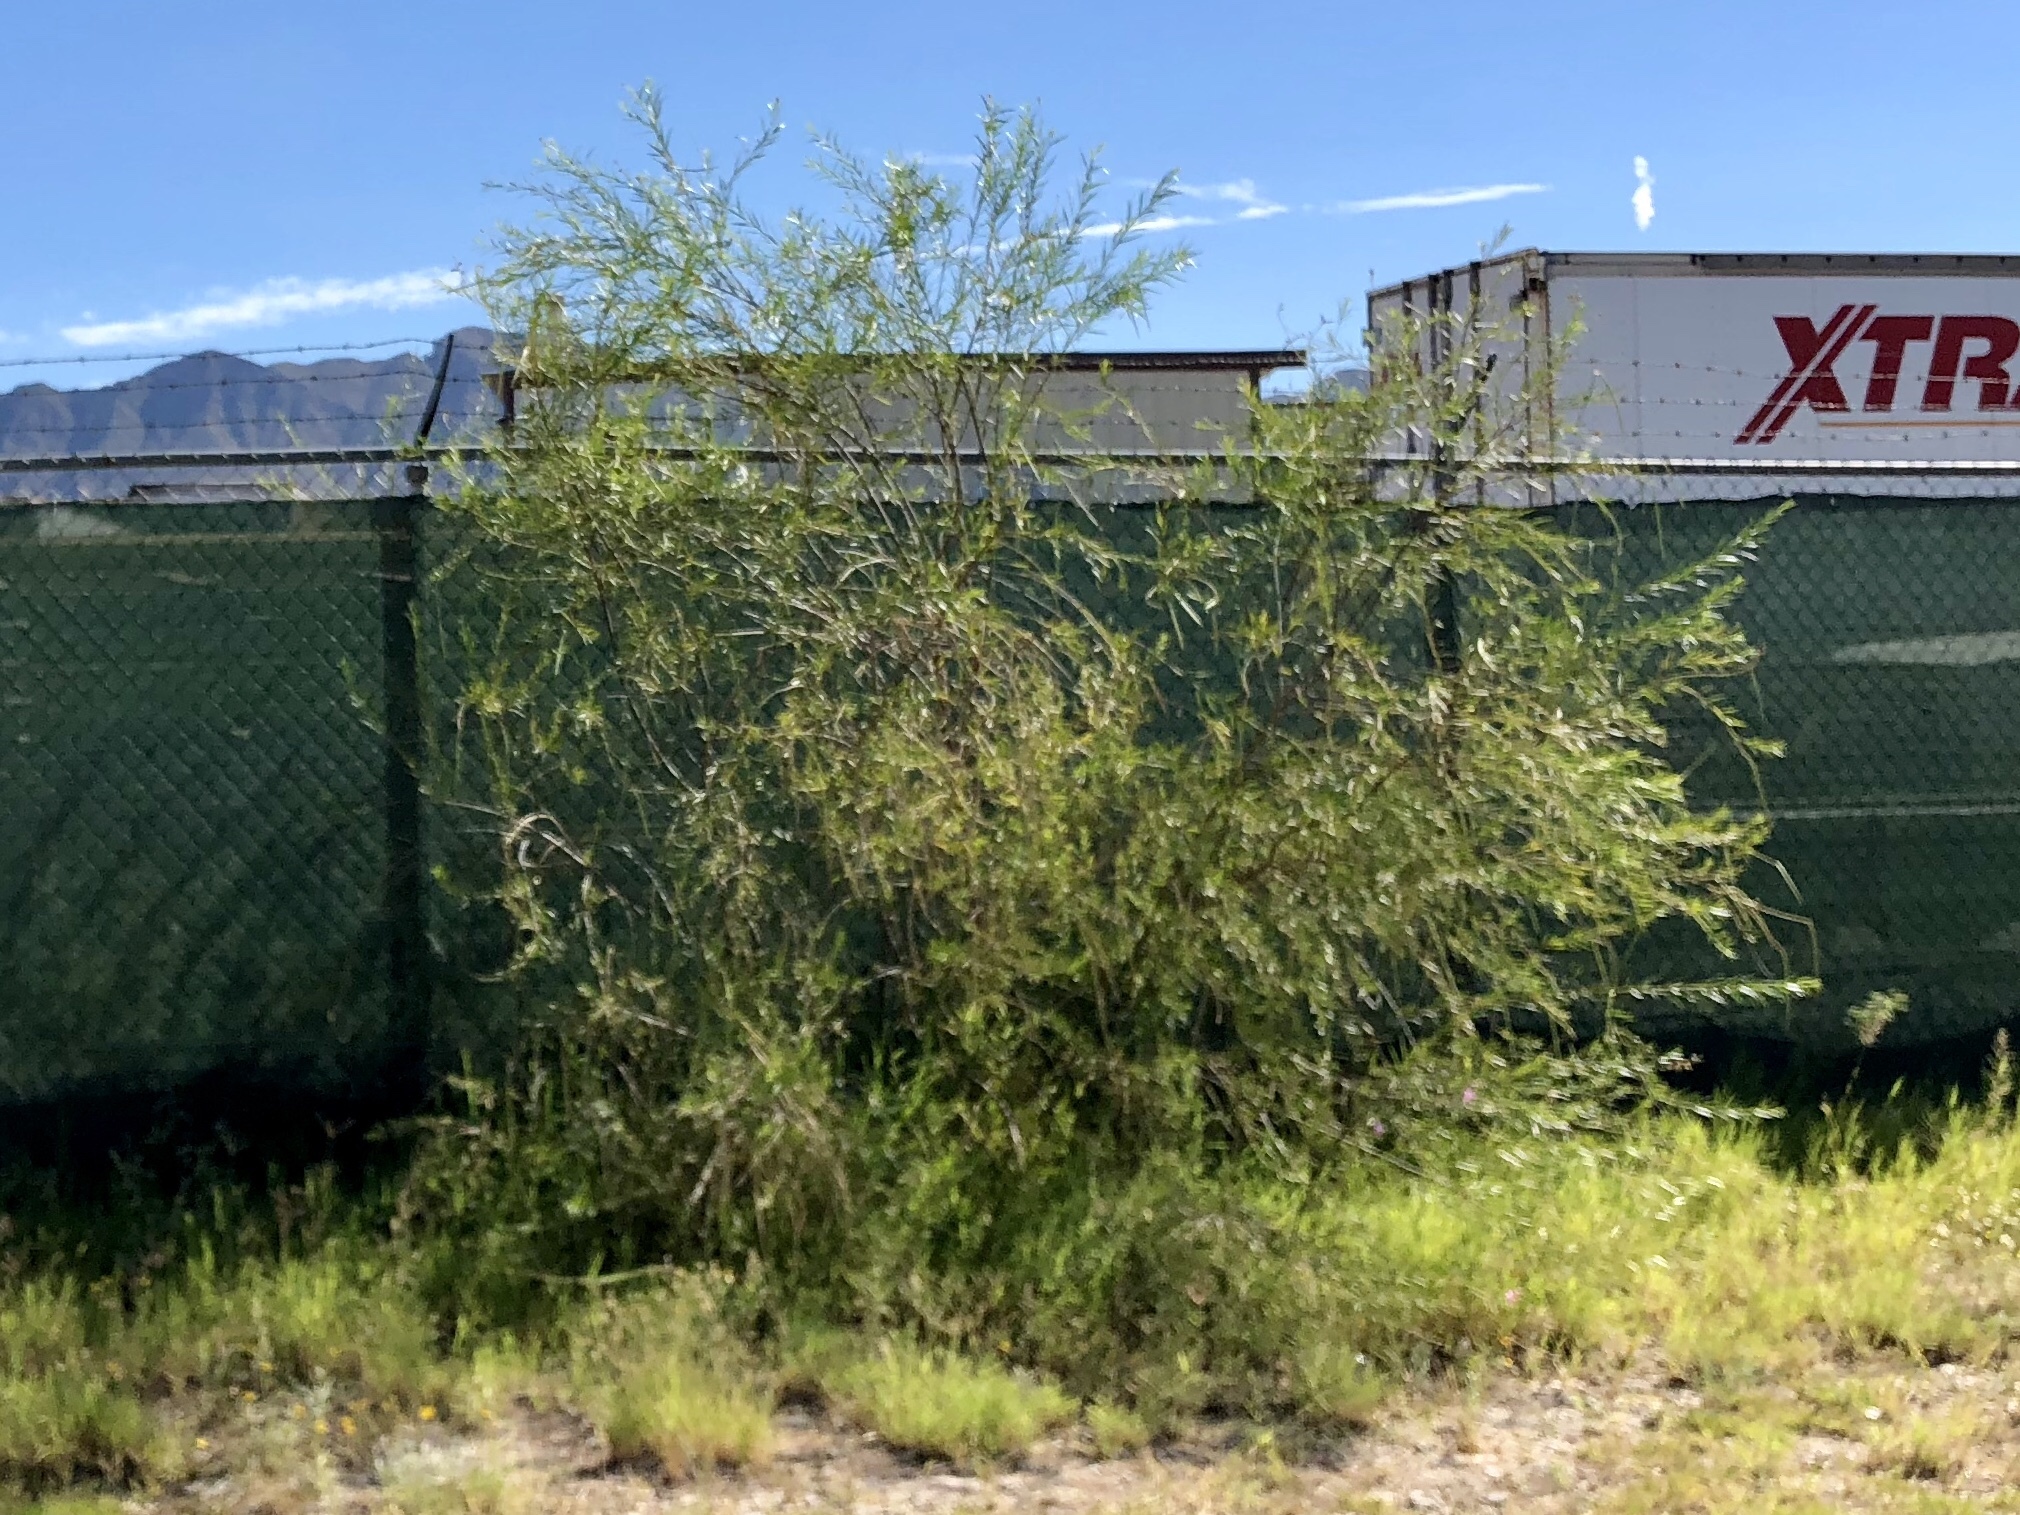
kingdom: Plantae
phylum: Tracheophyta
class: Magnoliopsida
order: Lamiales
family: Bignoniaceae
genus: Chilopsis
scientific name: Chilopsis linearis
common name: Desert-willow
